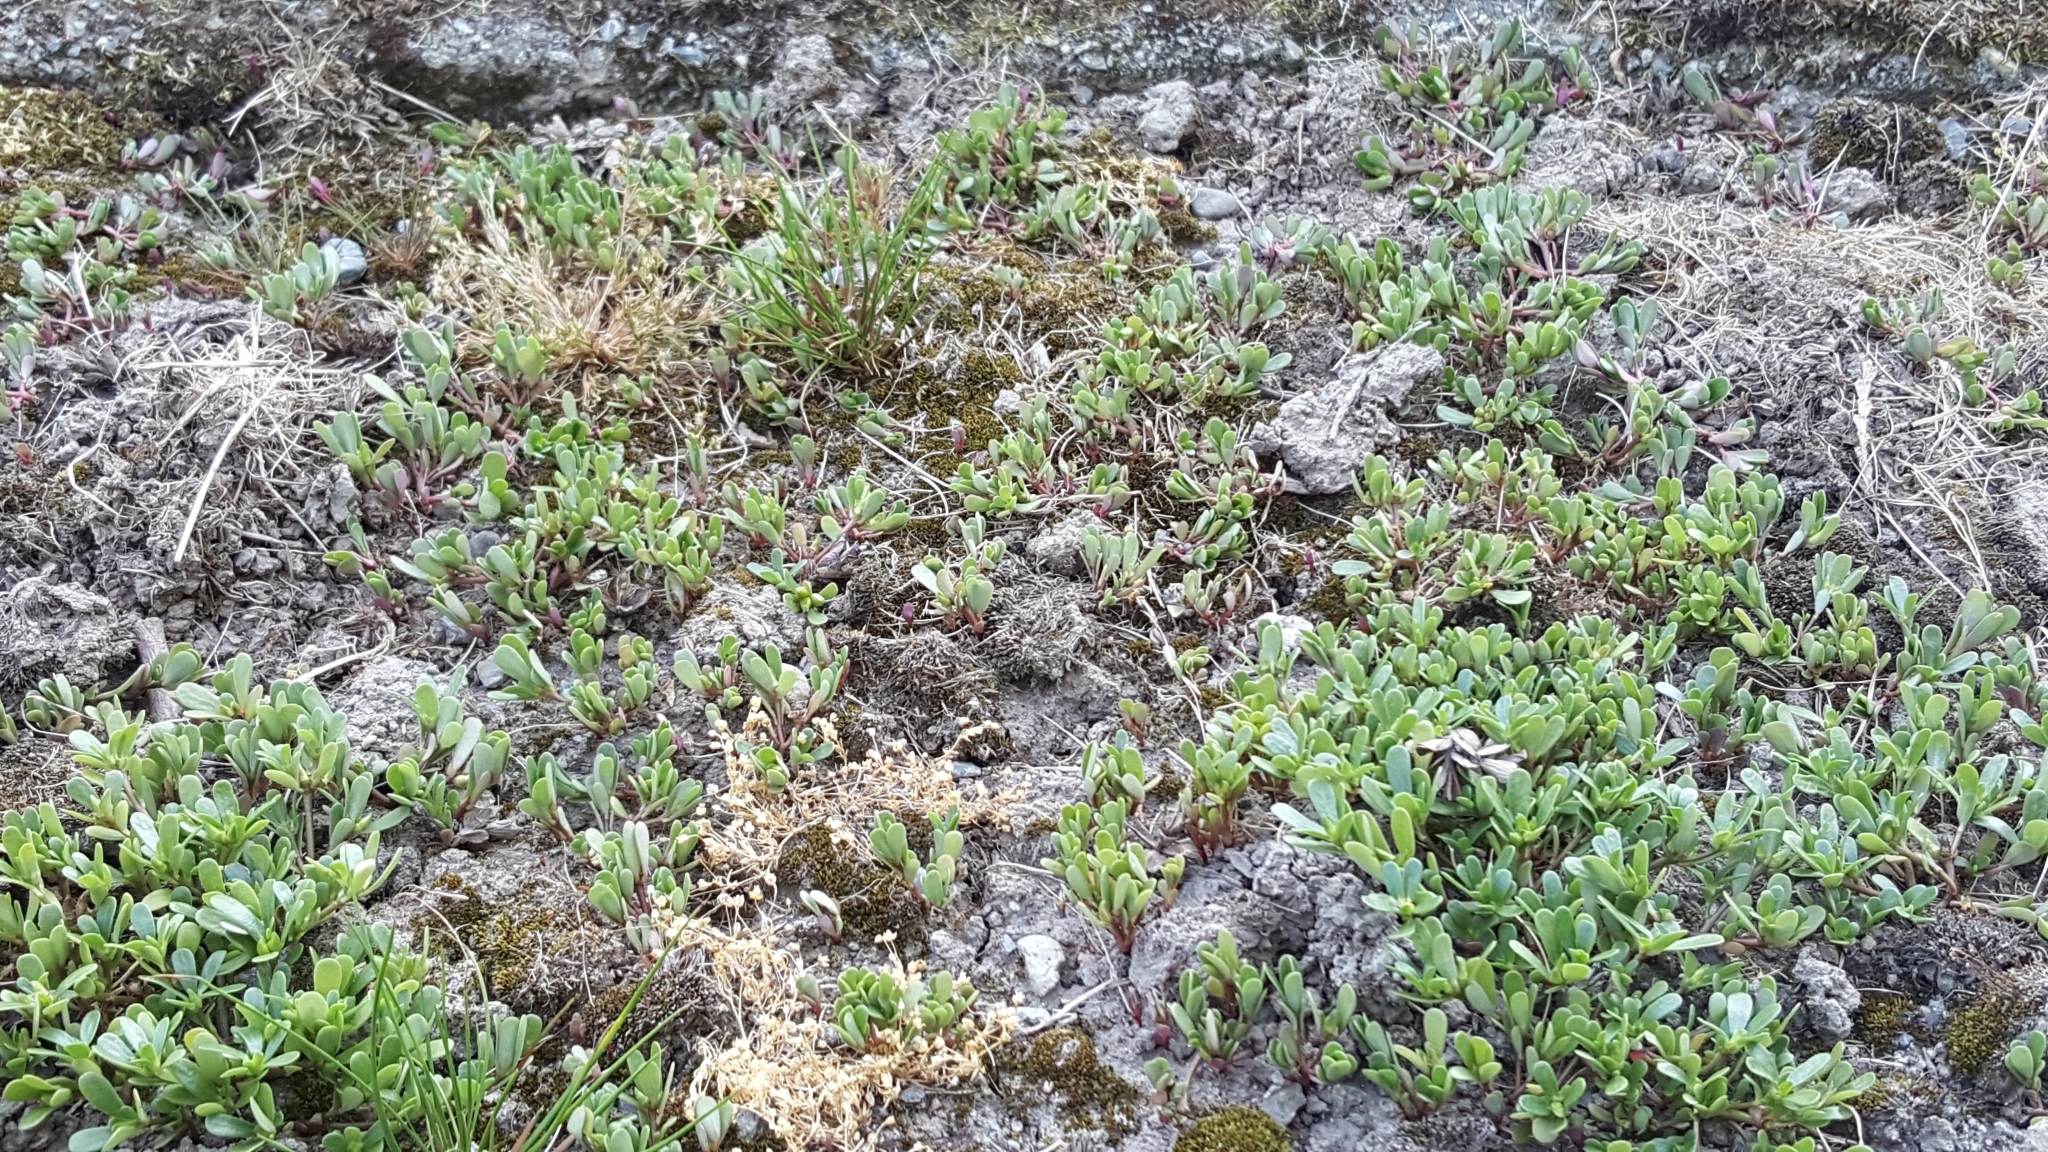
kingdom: Plantae
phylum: Tracheophyta
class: Magnoliopsida
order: Caryophyllales
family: Portulacaceae
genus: Portulaca
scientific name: Portulaca oleracea
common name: Common purslane
